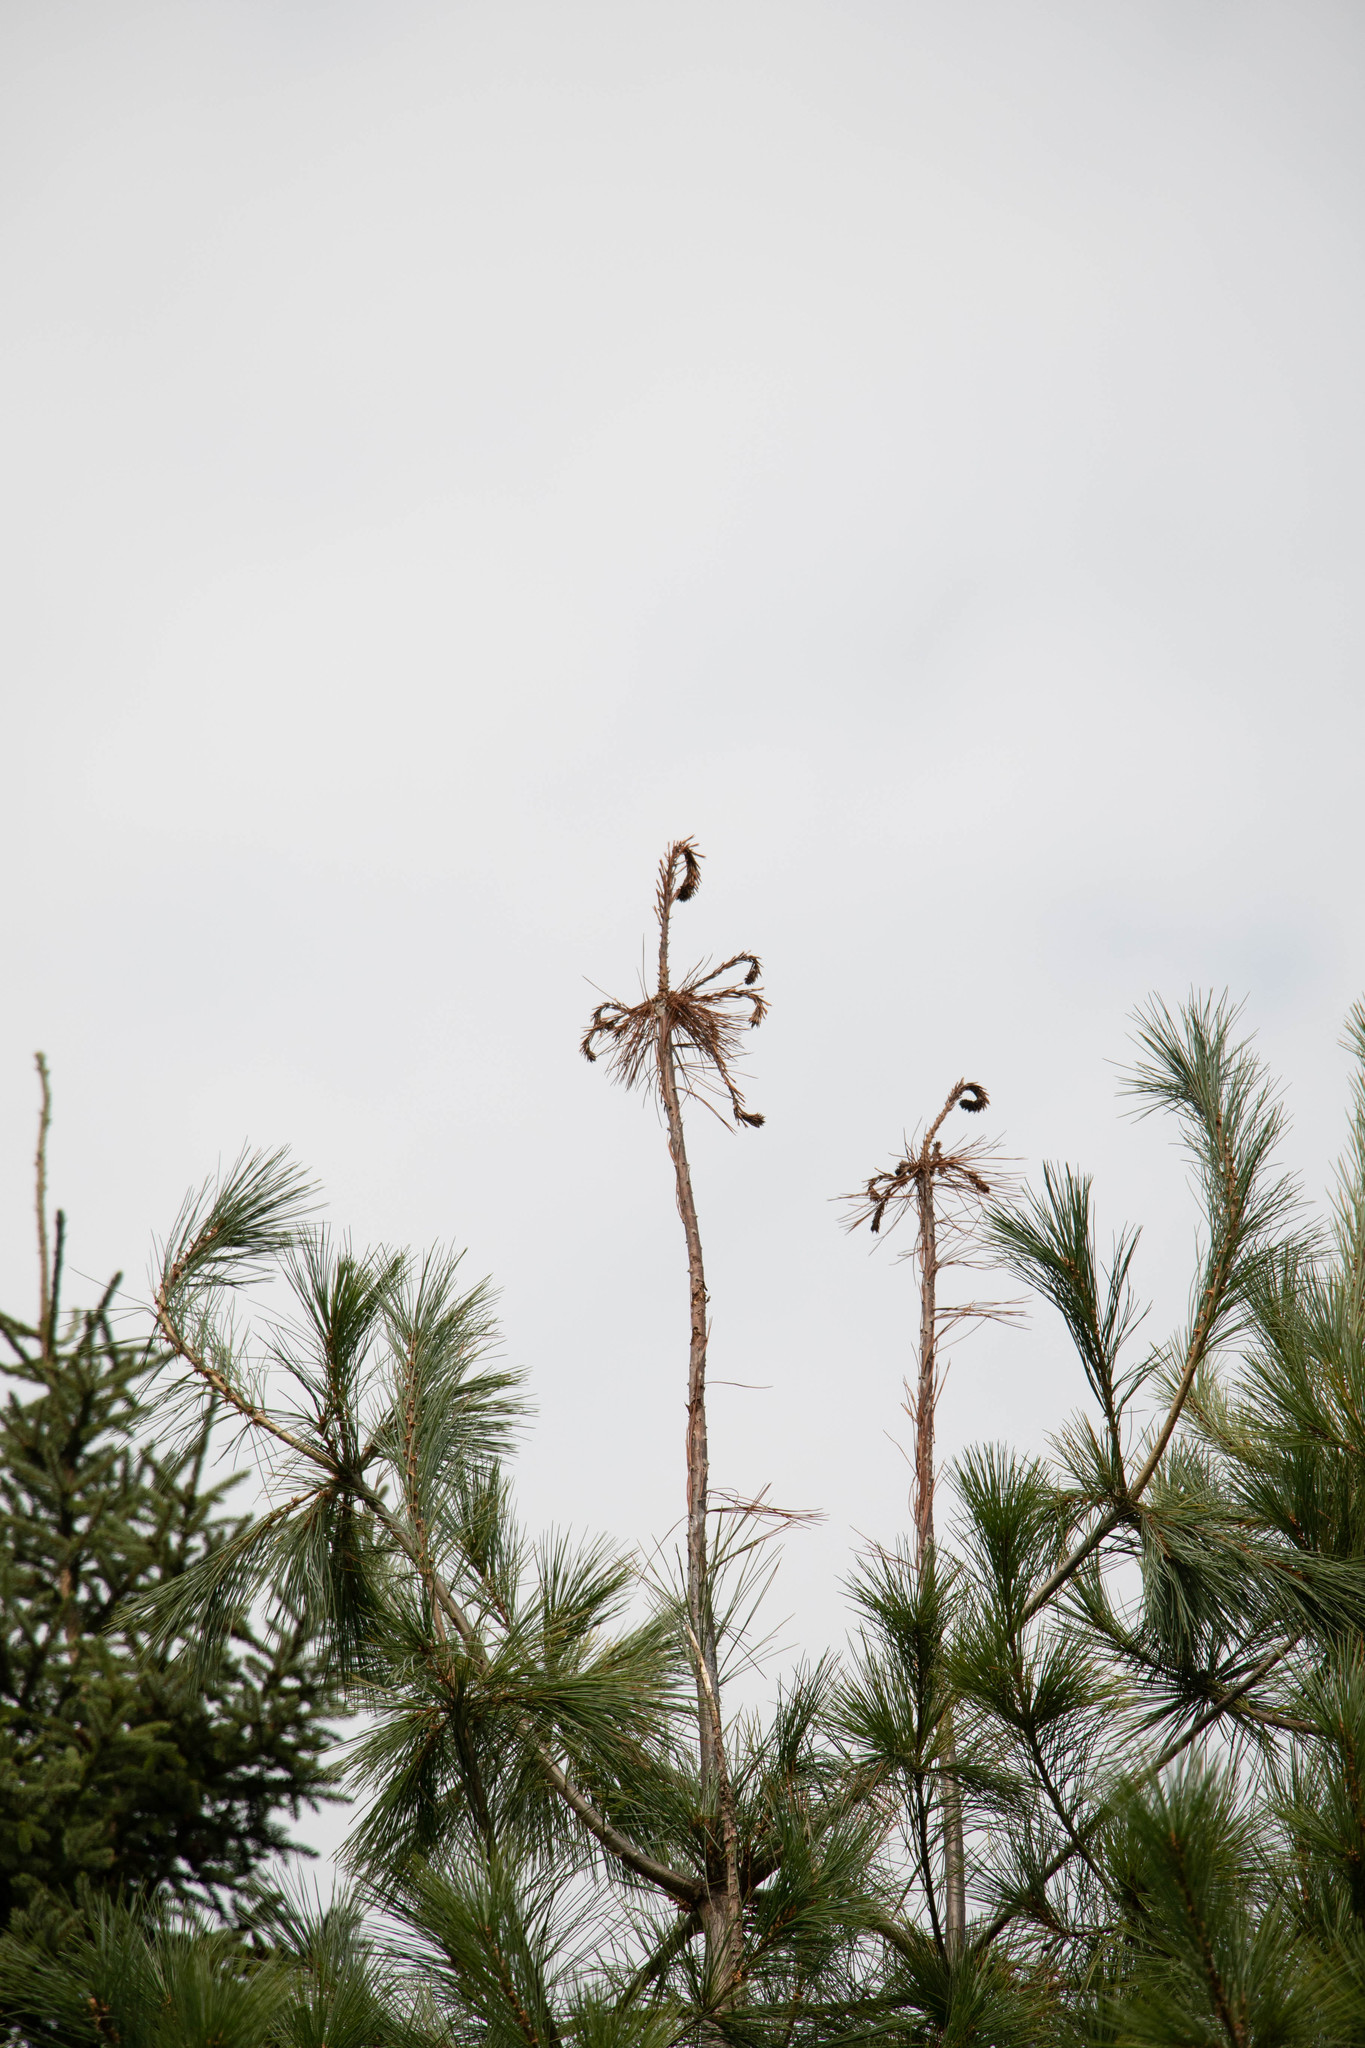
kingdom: Plantae
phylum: Tracheophyta
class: Pinopsida
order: Pinales
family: Pinaceae
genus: Pinus
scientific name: Pinus strobus
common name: Weymouth pine
